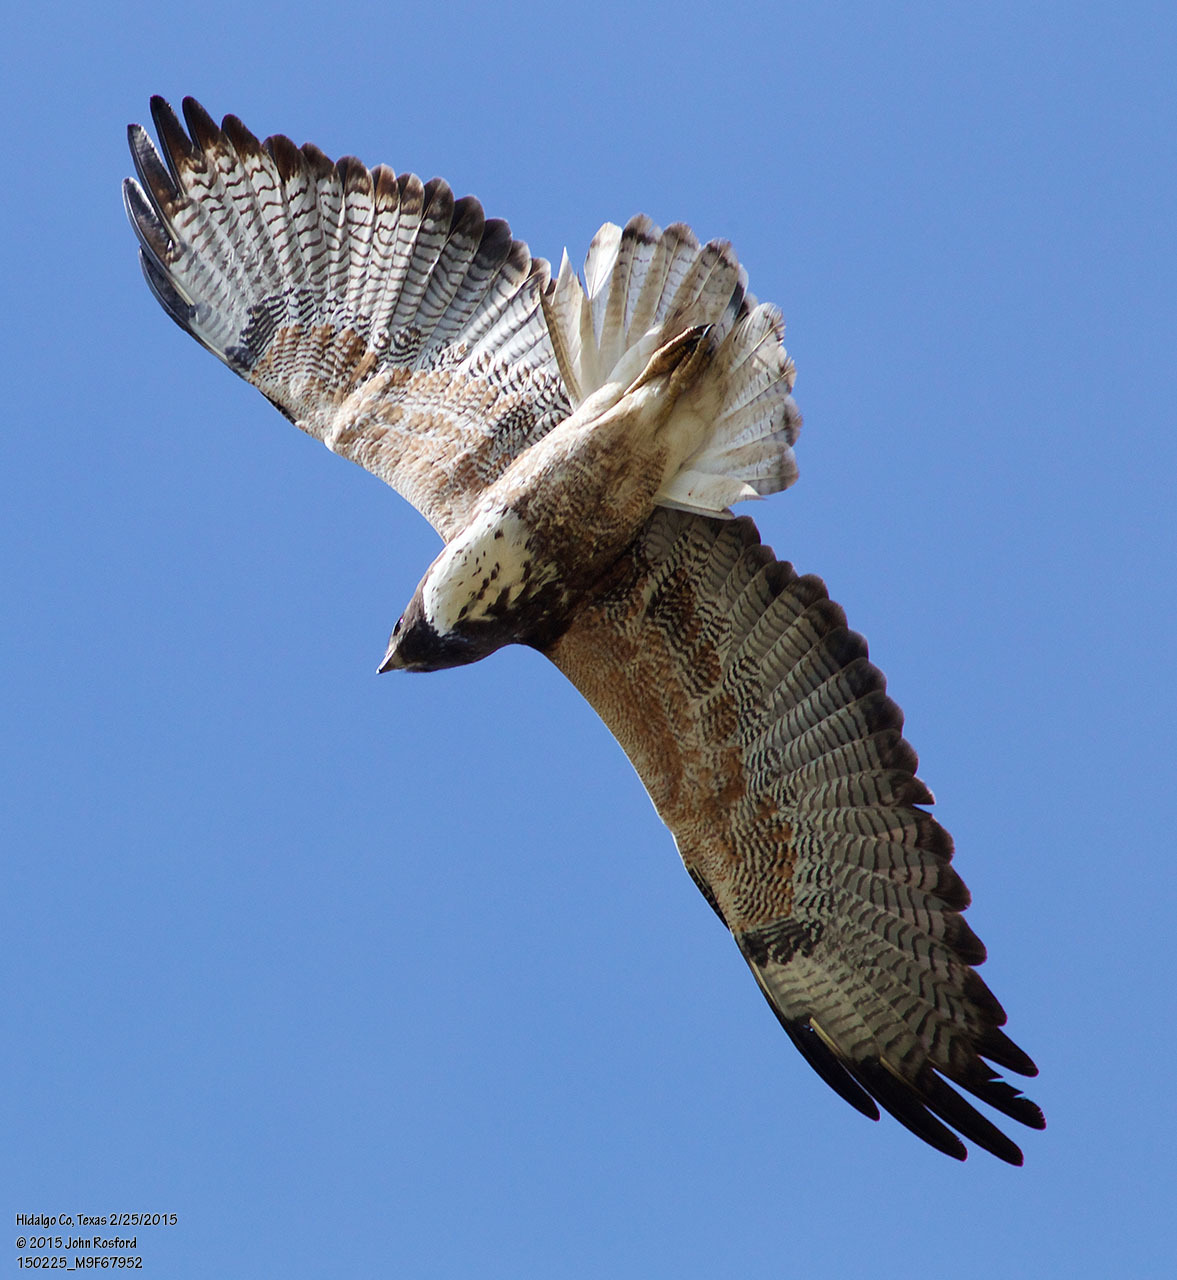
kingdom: Animalia
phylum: Chordata
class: Aves
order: Accipitriformes
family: Accipitridae
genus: Buteo
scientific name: Buteo albicaudatus
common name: White-tailed hawk
